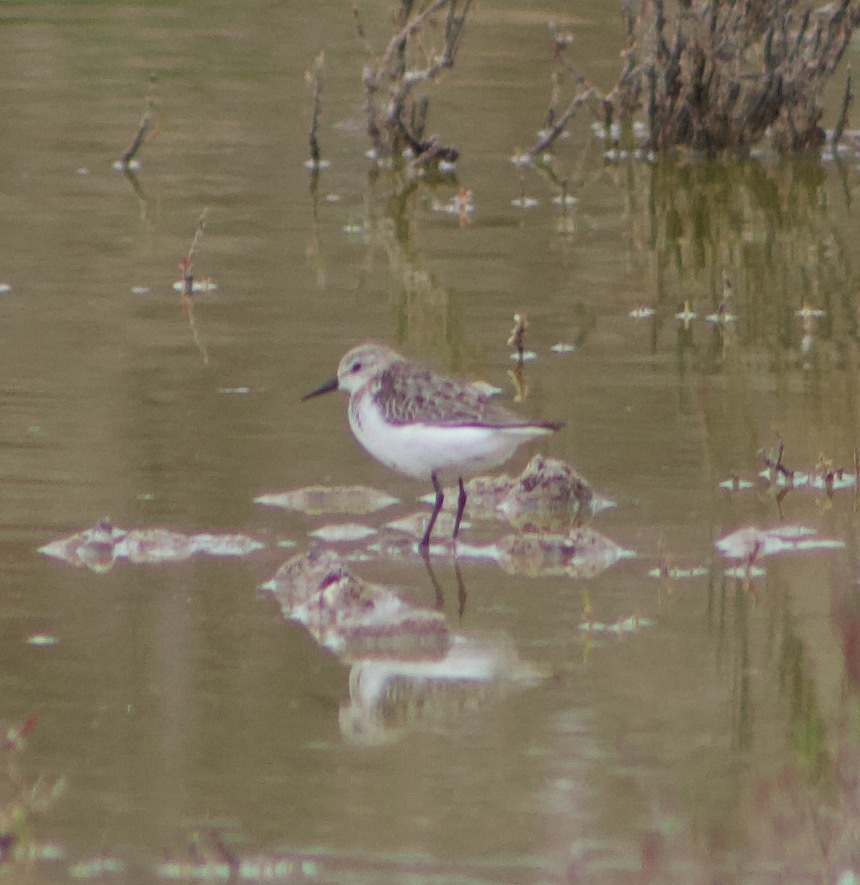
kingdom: Animalia
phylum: Chordata
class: Aves
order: Charadriiformes
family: Scolopacidae
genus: Calidris
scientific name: Calidris pusilla
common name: Semipalmated sandpiper
